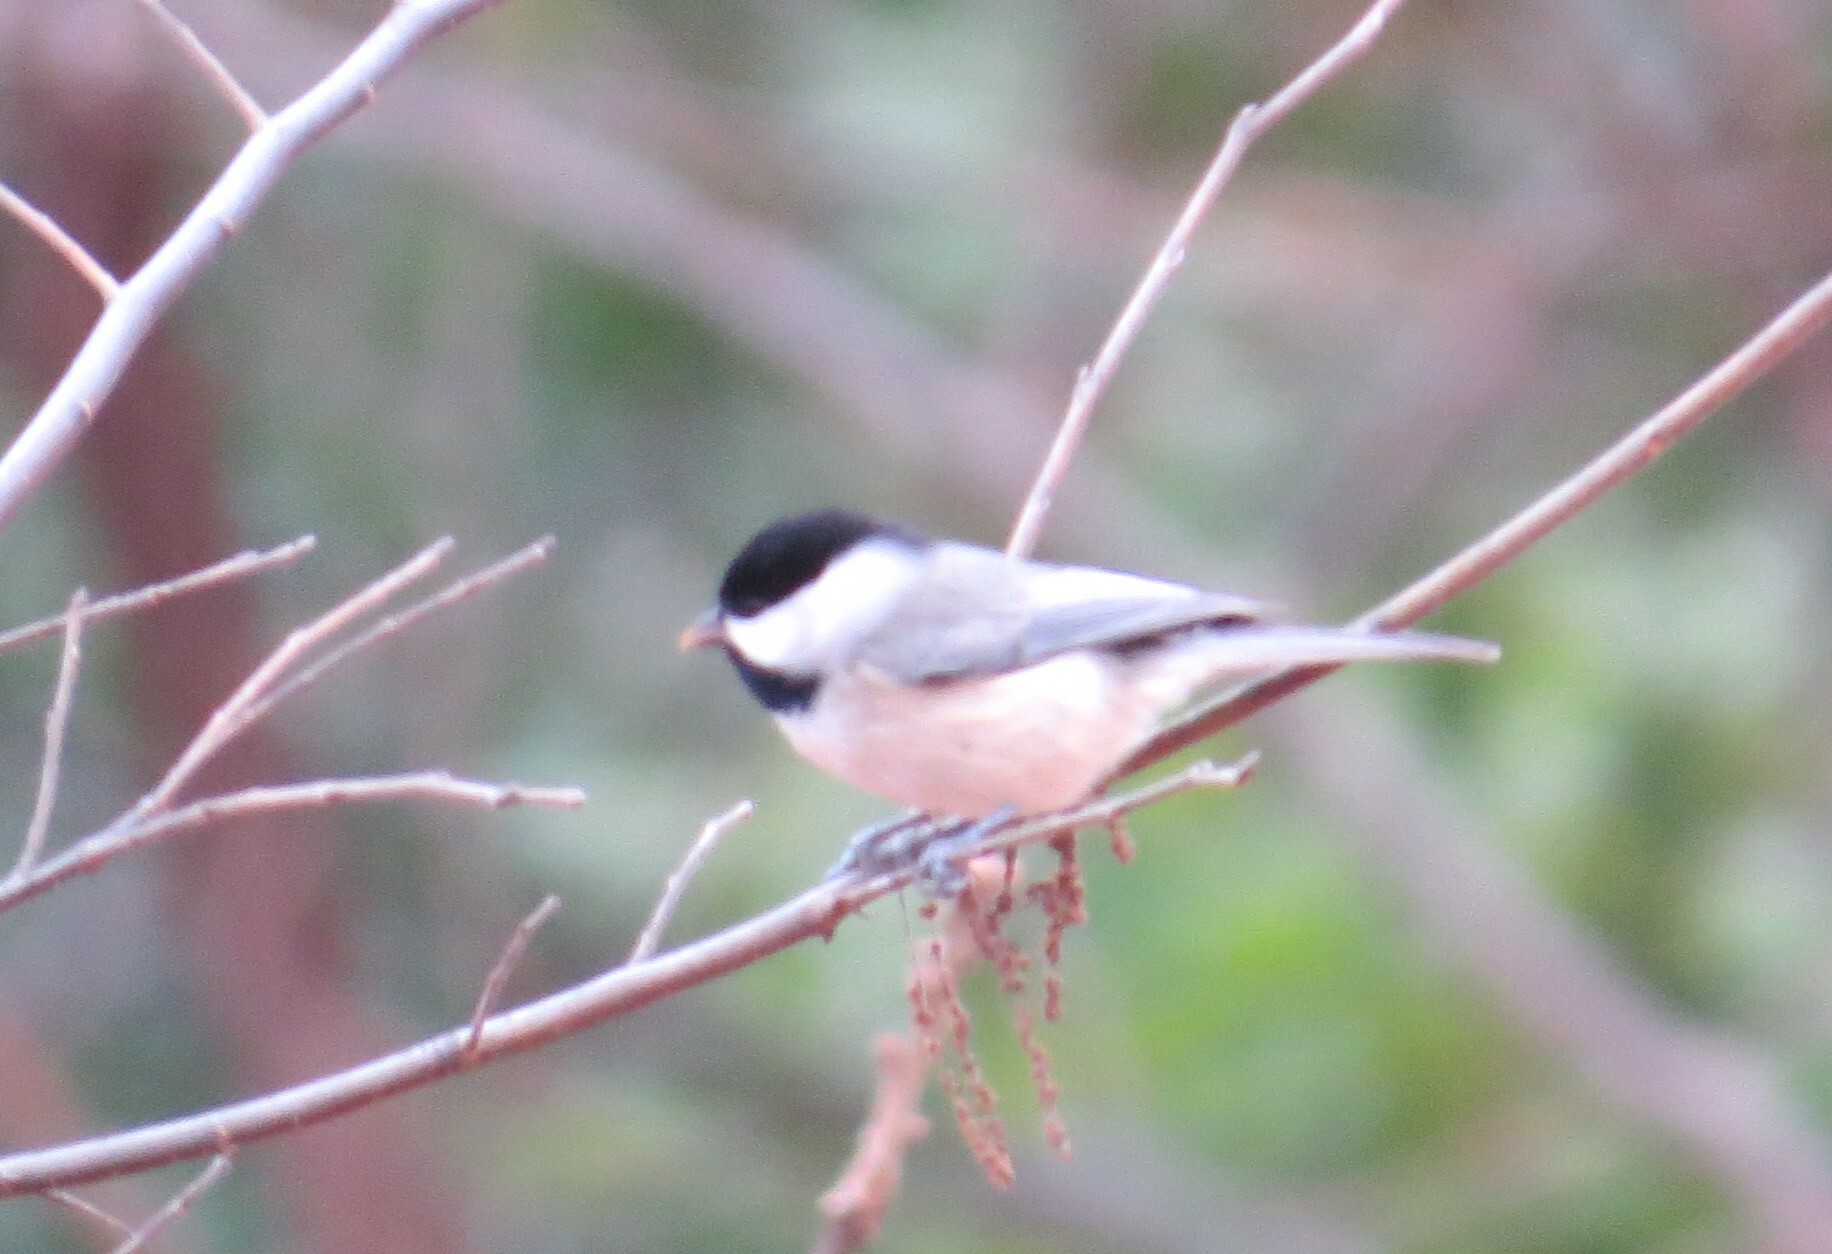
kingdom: Animalia
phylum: Chordata
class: Aves
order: Passeriformes
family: Paridae
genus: Poecile
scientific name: Poecile carolinensis
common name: Carolina chickadee
